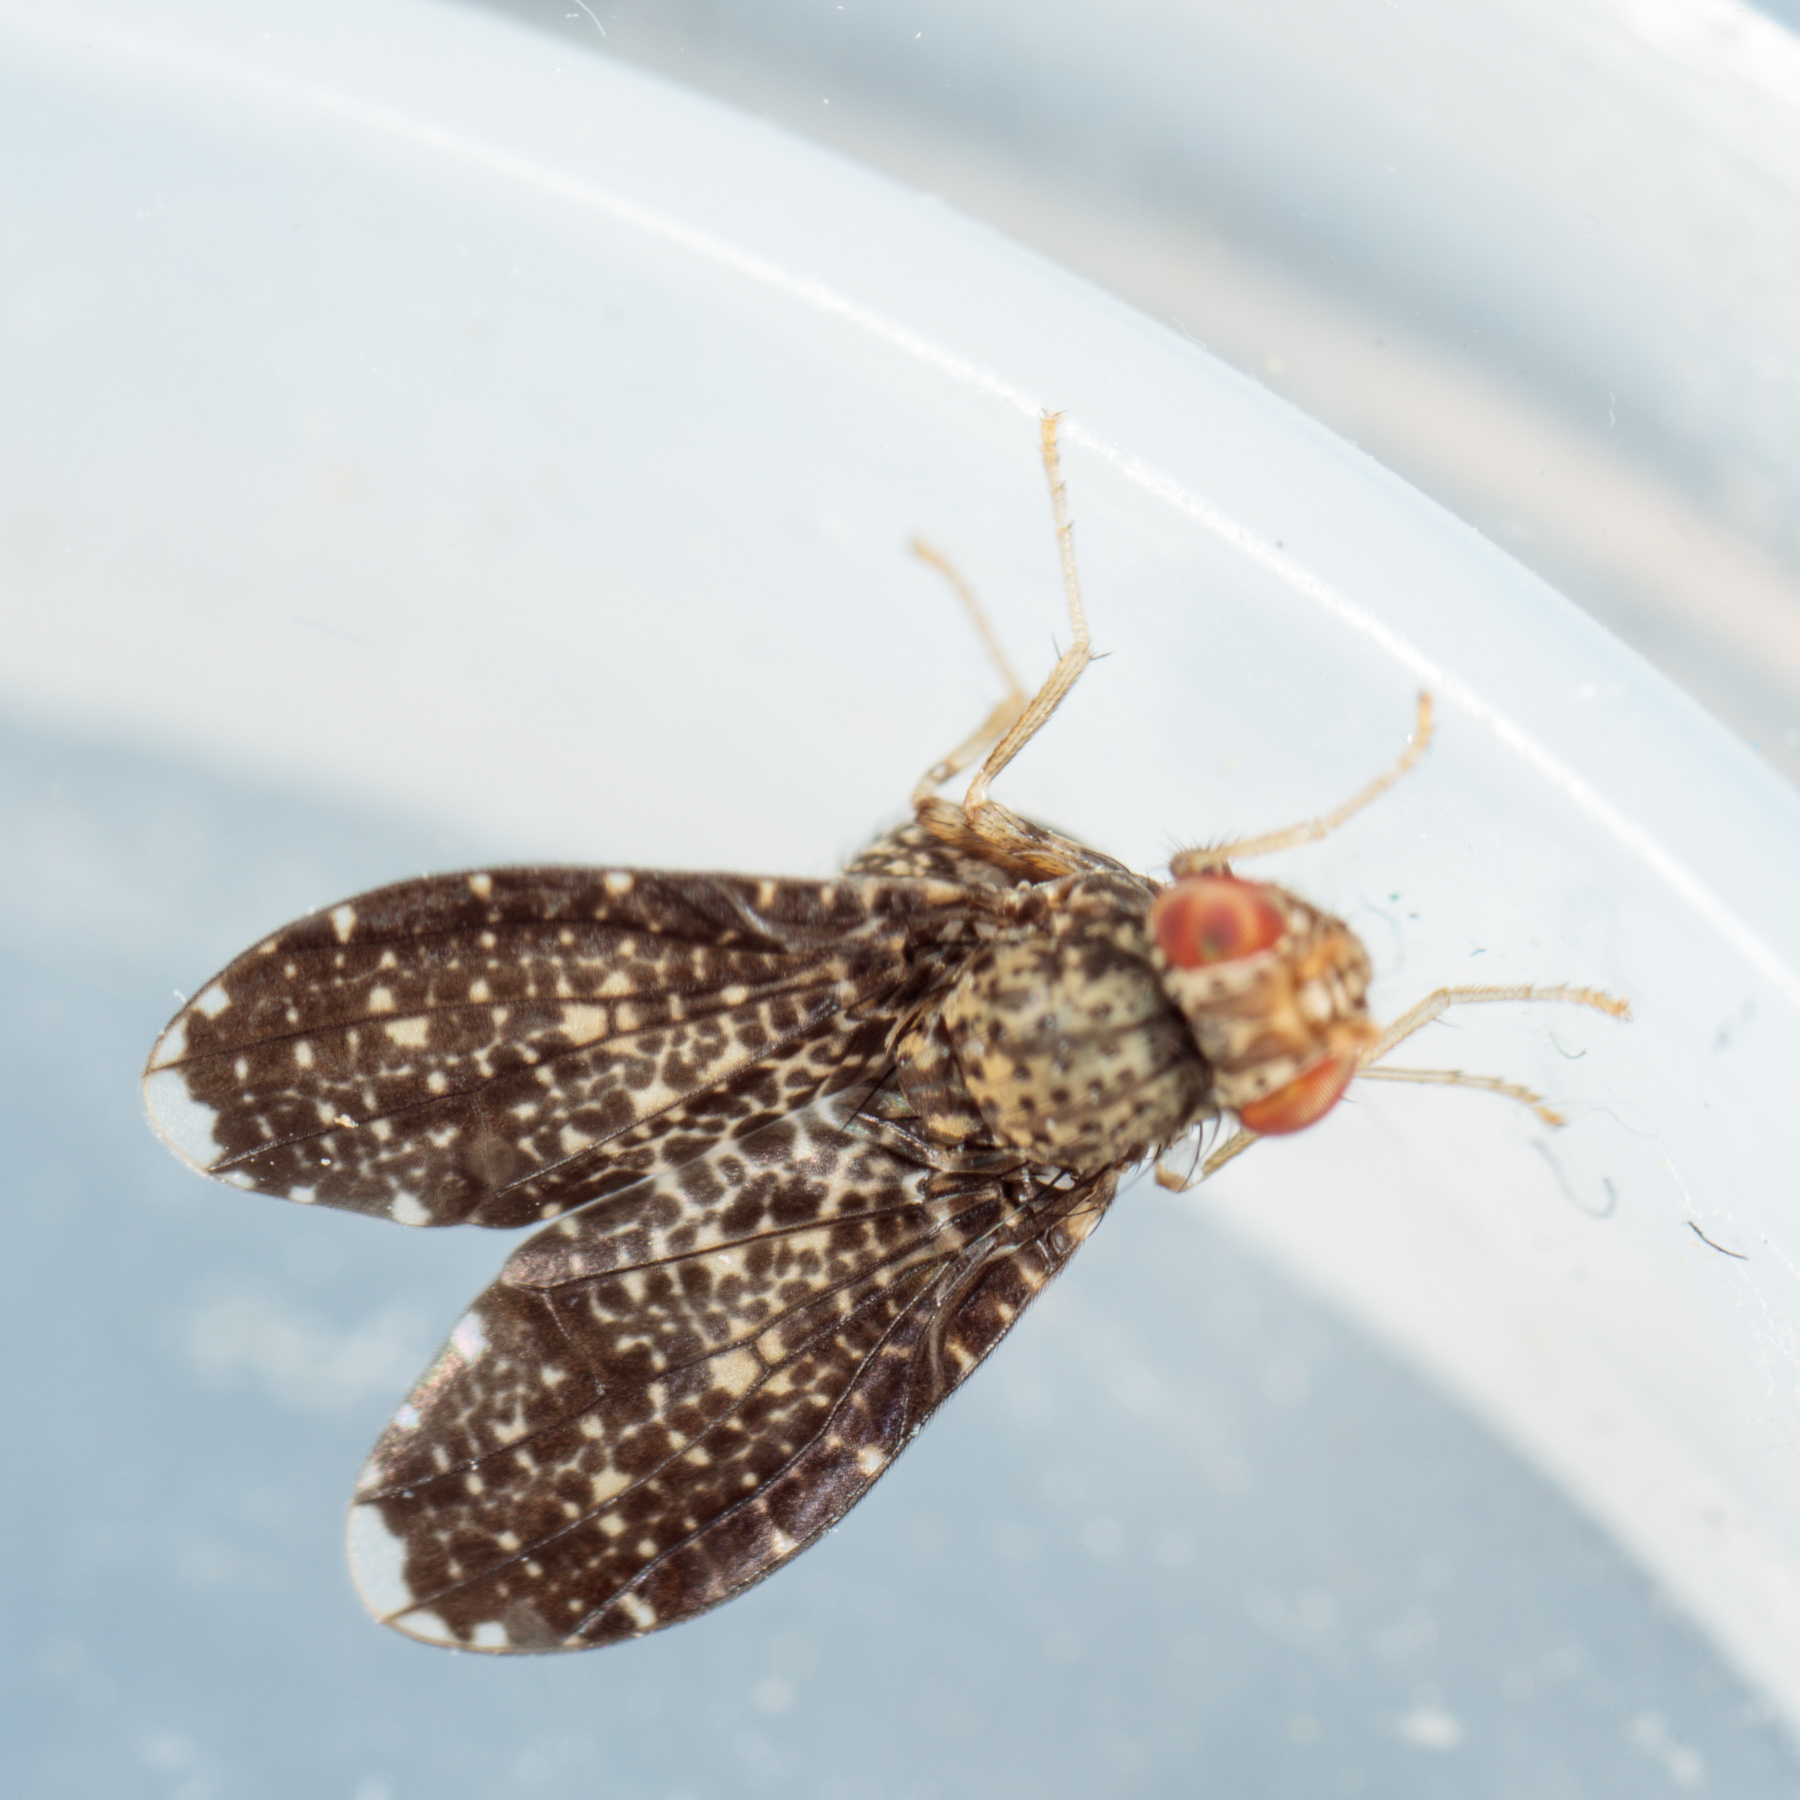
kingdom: Animalia
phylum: Arthropoda
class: Insecta
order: Diptera
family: Lauxaniidae
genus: Trypetisoma
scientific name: Trypetisoma sticticum
